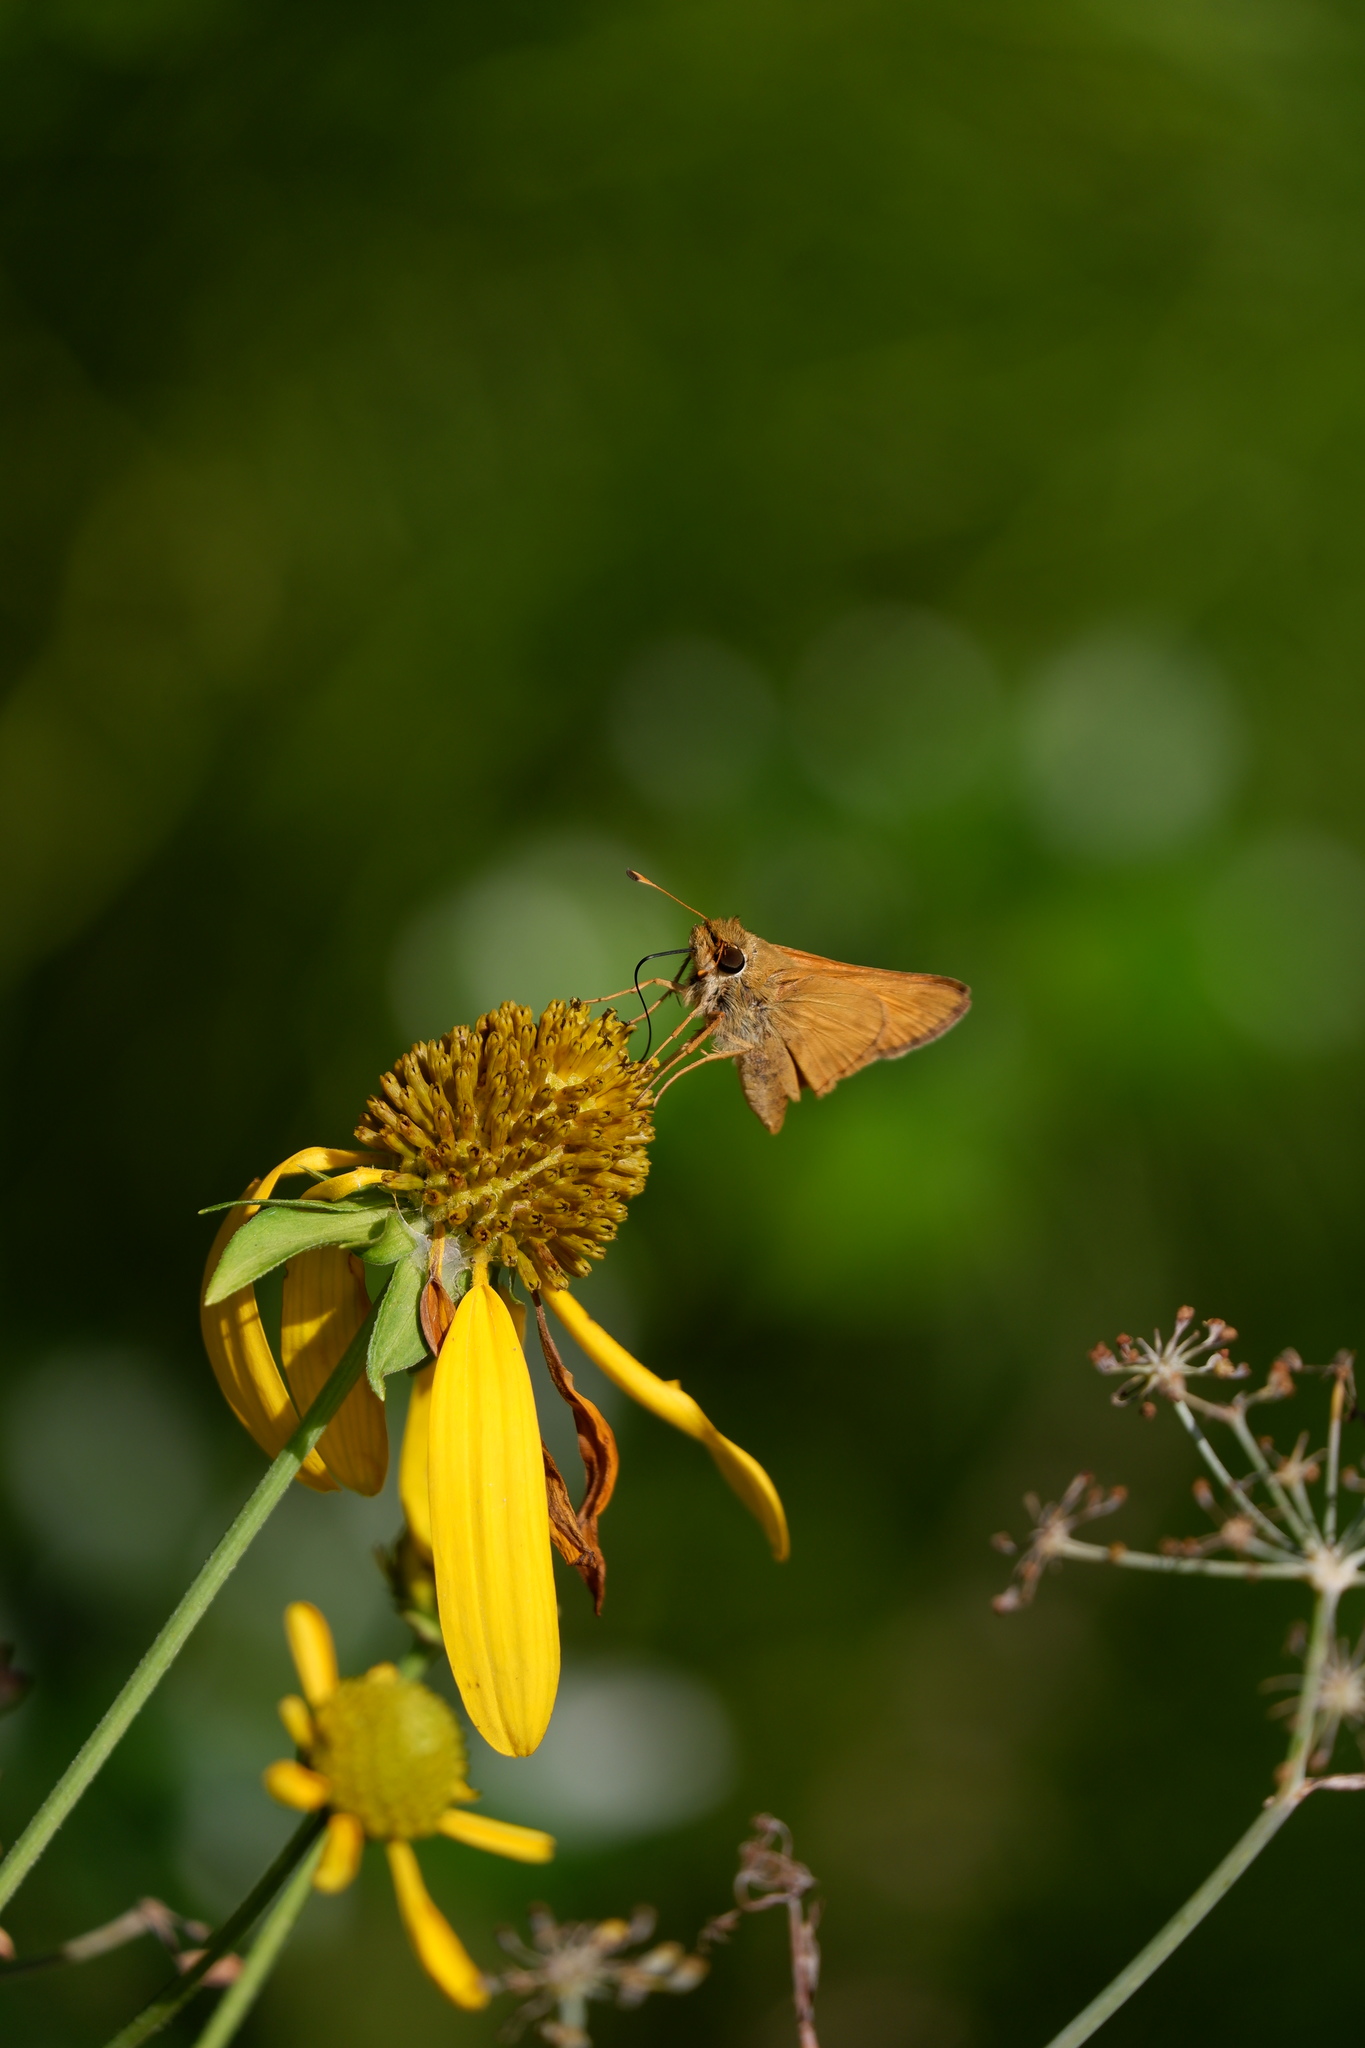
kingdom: Animalia
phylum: Arthropoda
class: Insecta
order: Lepidoptera
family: Hesperiidae
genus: Atalopedes
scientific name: Atalopedes
